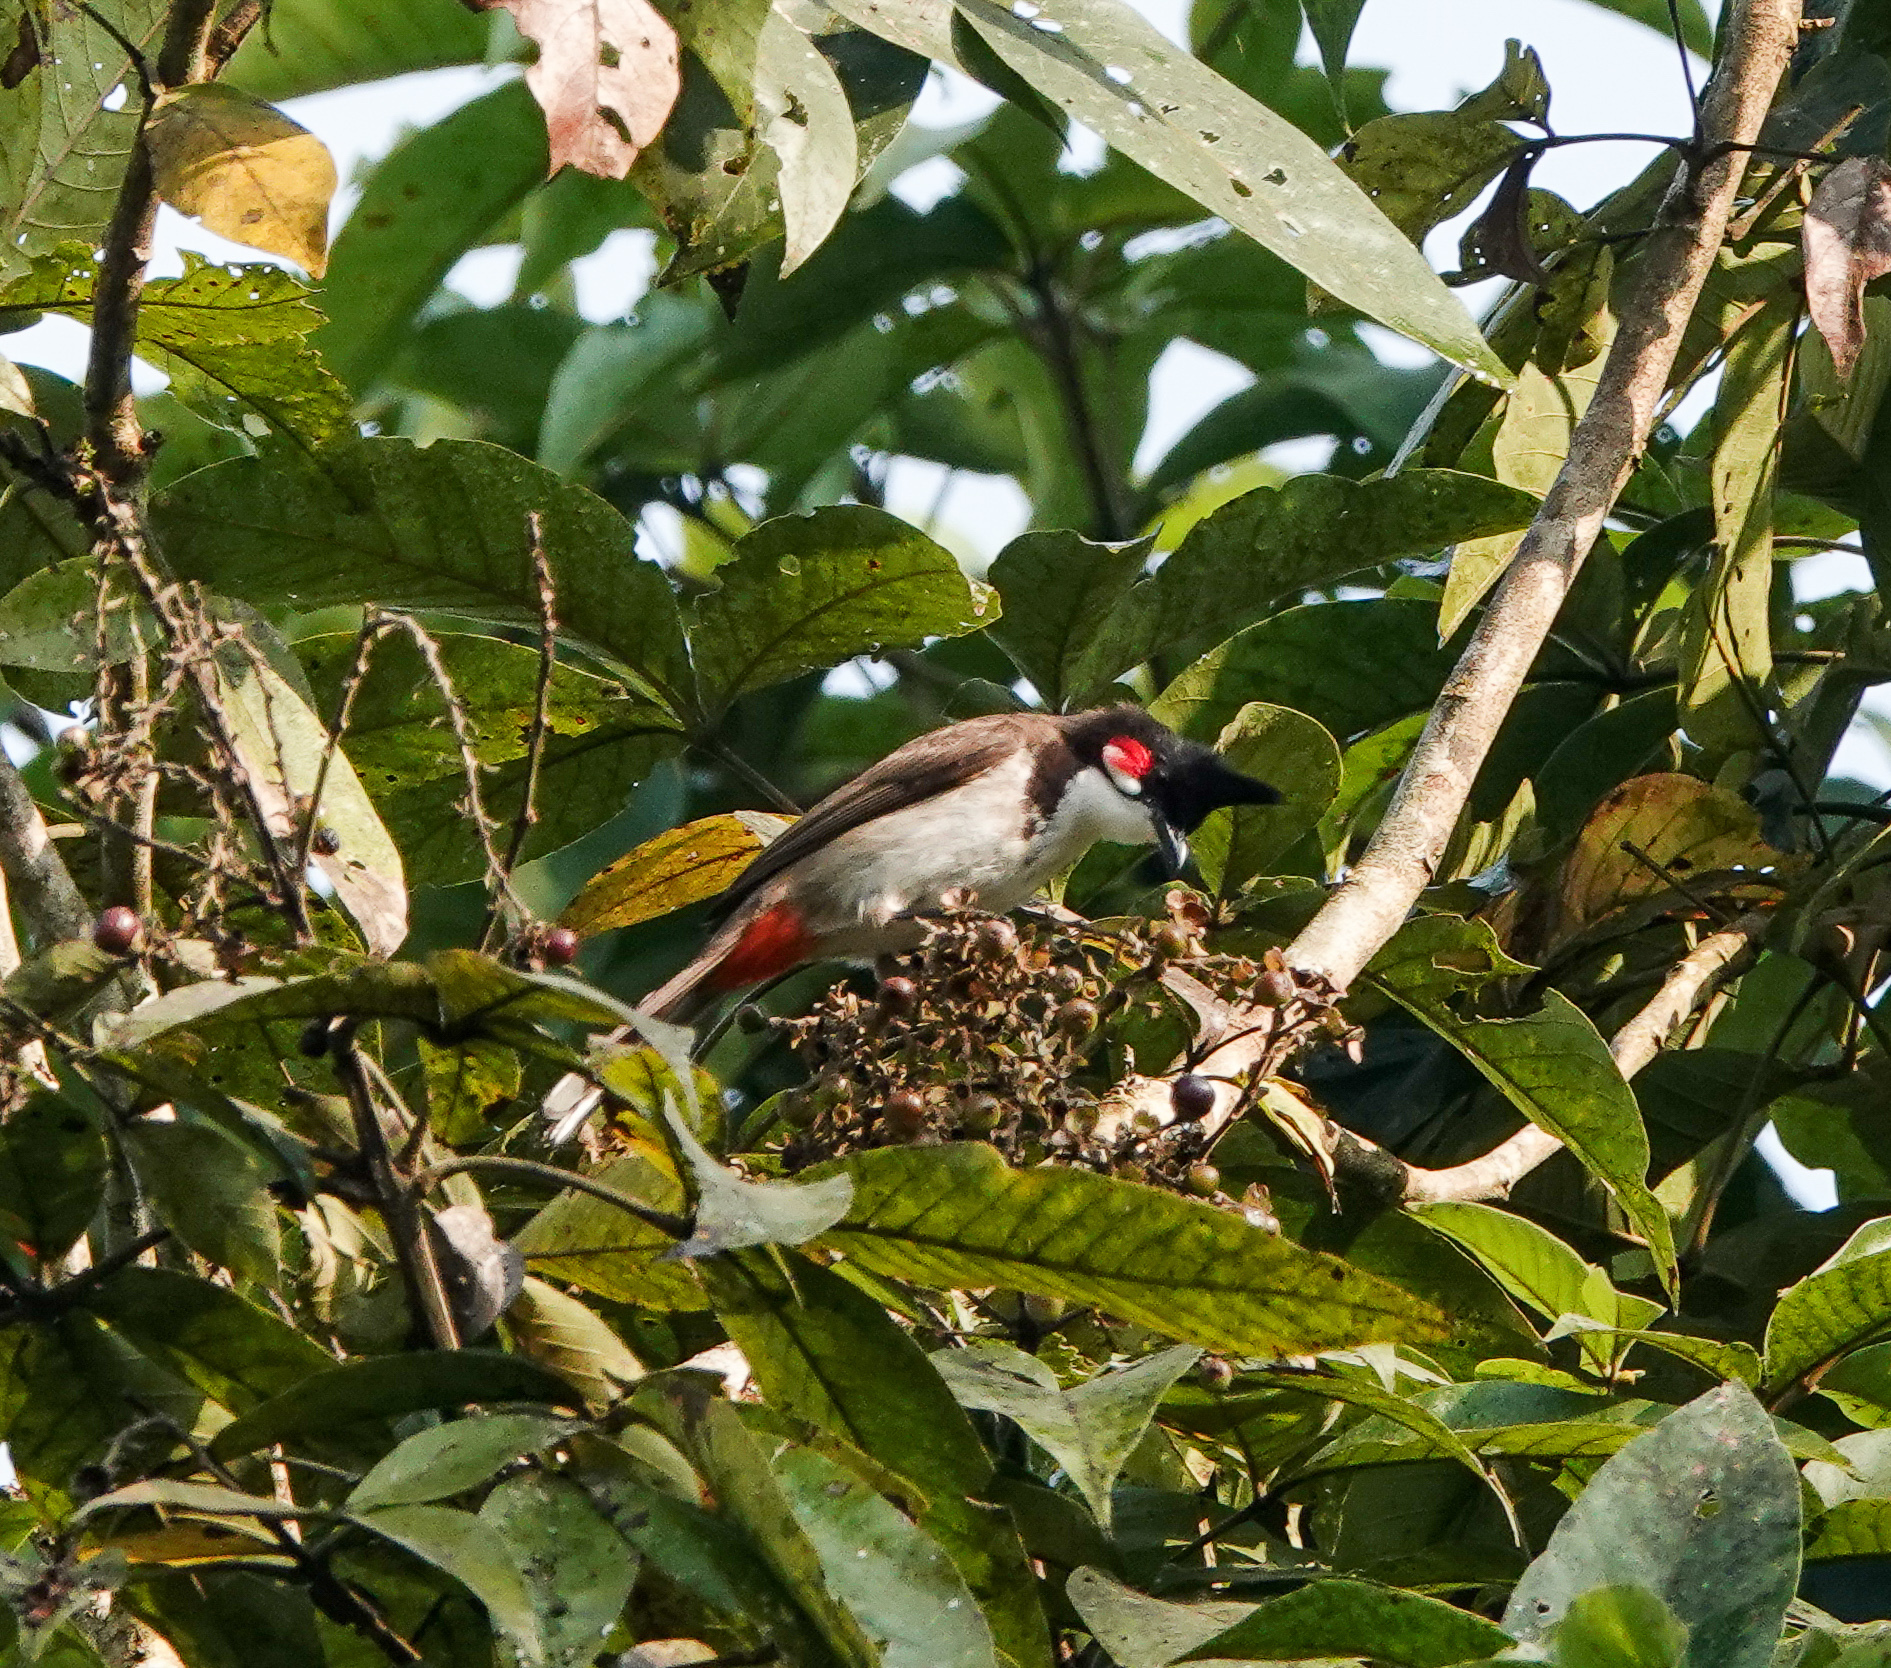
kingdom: Animalia
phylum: Chordata
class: Aves
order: Passeriformes
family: Pycnonotidae
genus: Pycnonotus
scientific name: Pycnonotus jocosus
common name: Red-whiskered bulbul
